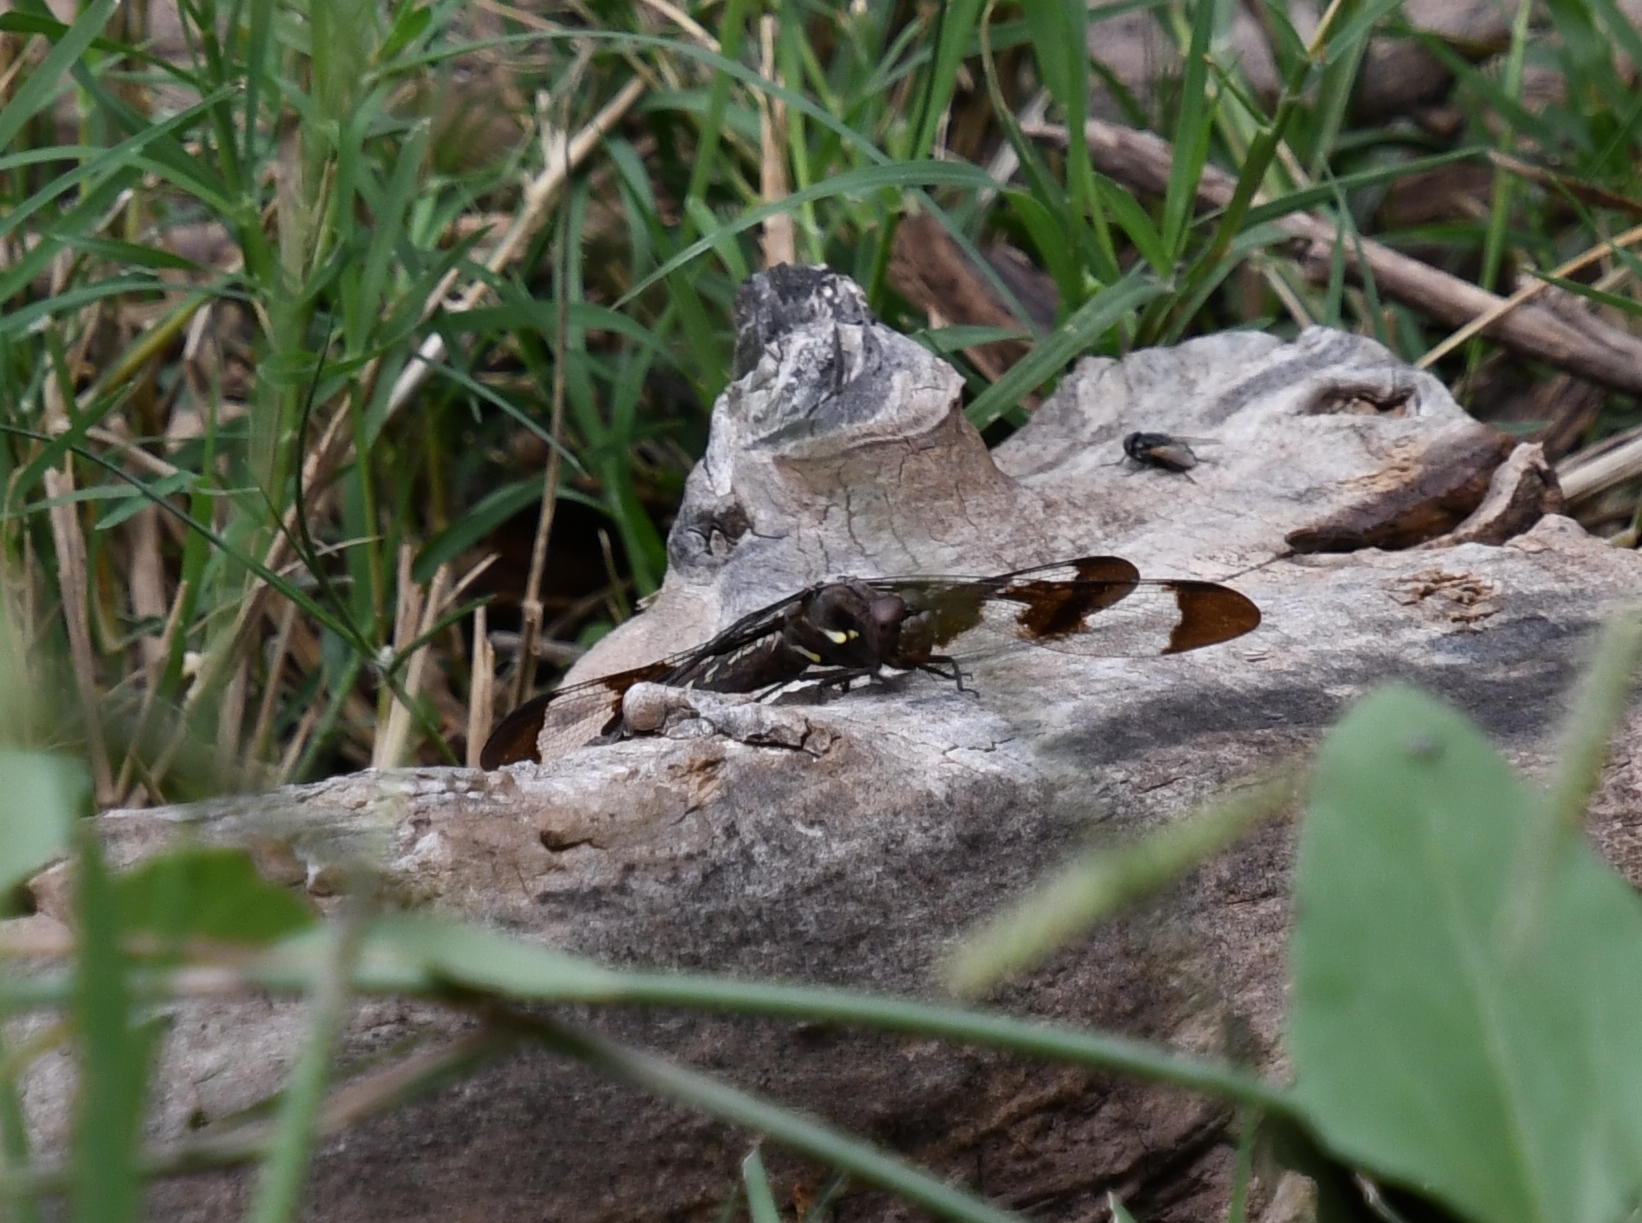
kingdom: Animalia
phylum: Arthropoda
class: Insecta
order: Odonata
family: Libellulidae
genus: Plathemis
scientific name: Plathemis lydia
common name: Common whitetail
